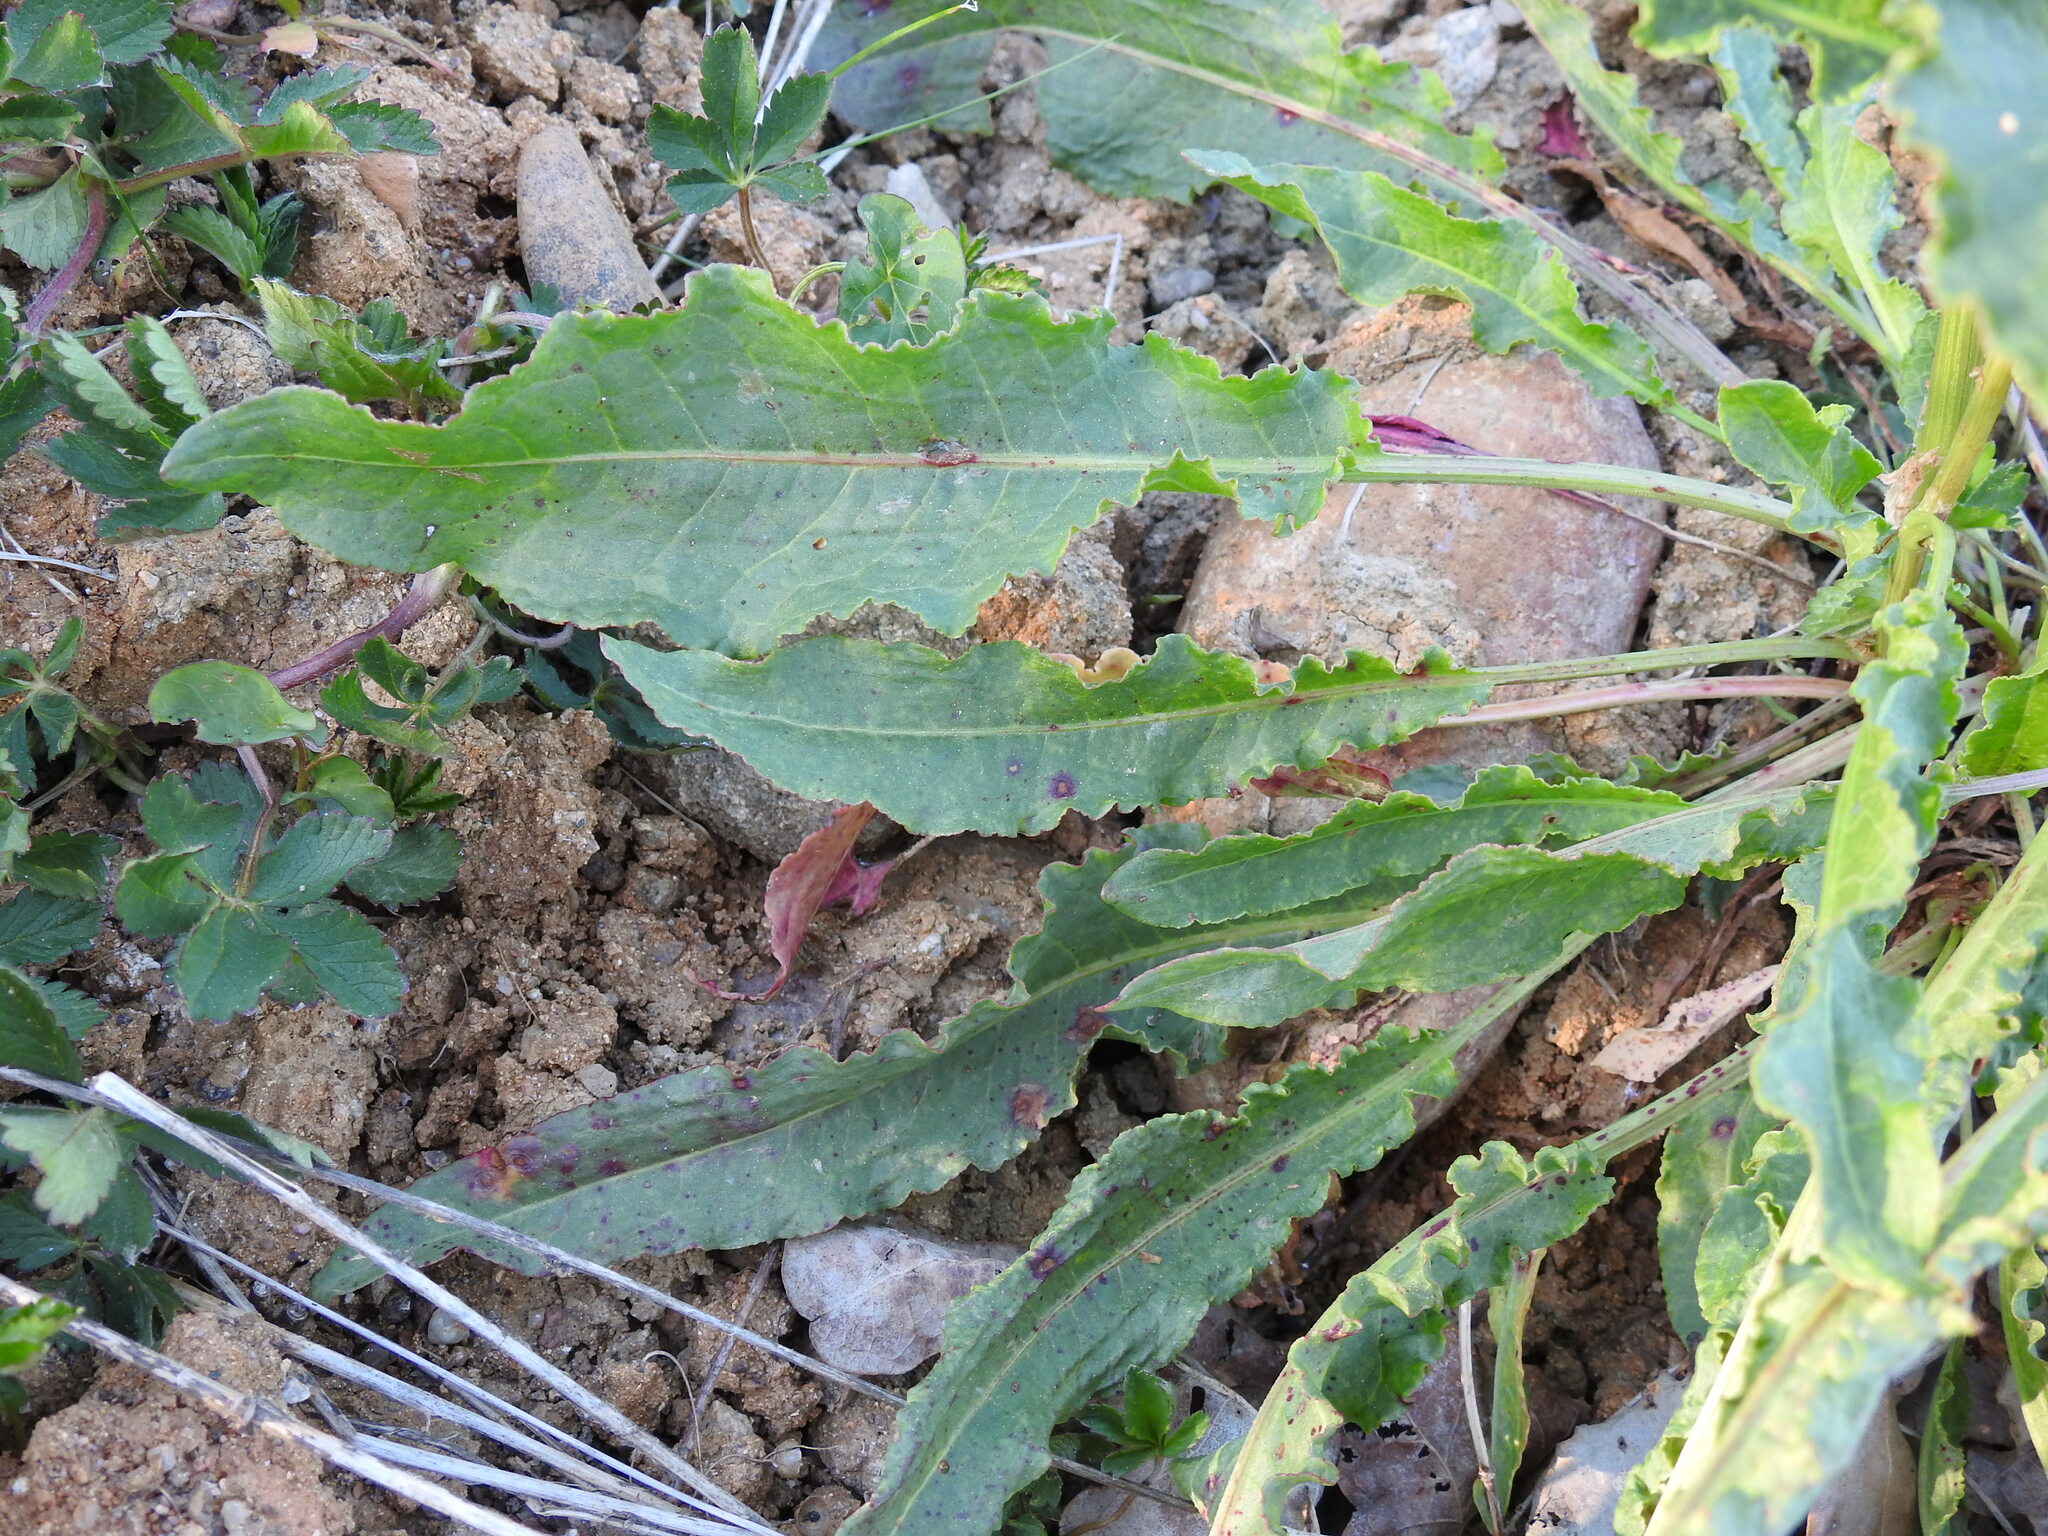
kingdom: Plantae
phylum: Tracheophyta
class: Magnoliopsida
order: Caryophyllales
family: Polygonaceae
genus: Rumex
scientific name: Rumex crispus
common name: Curled dock
